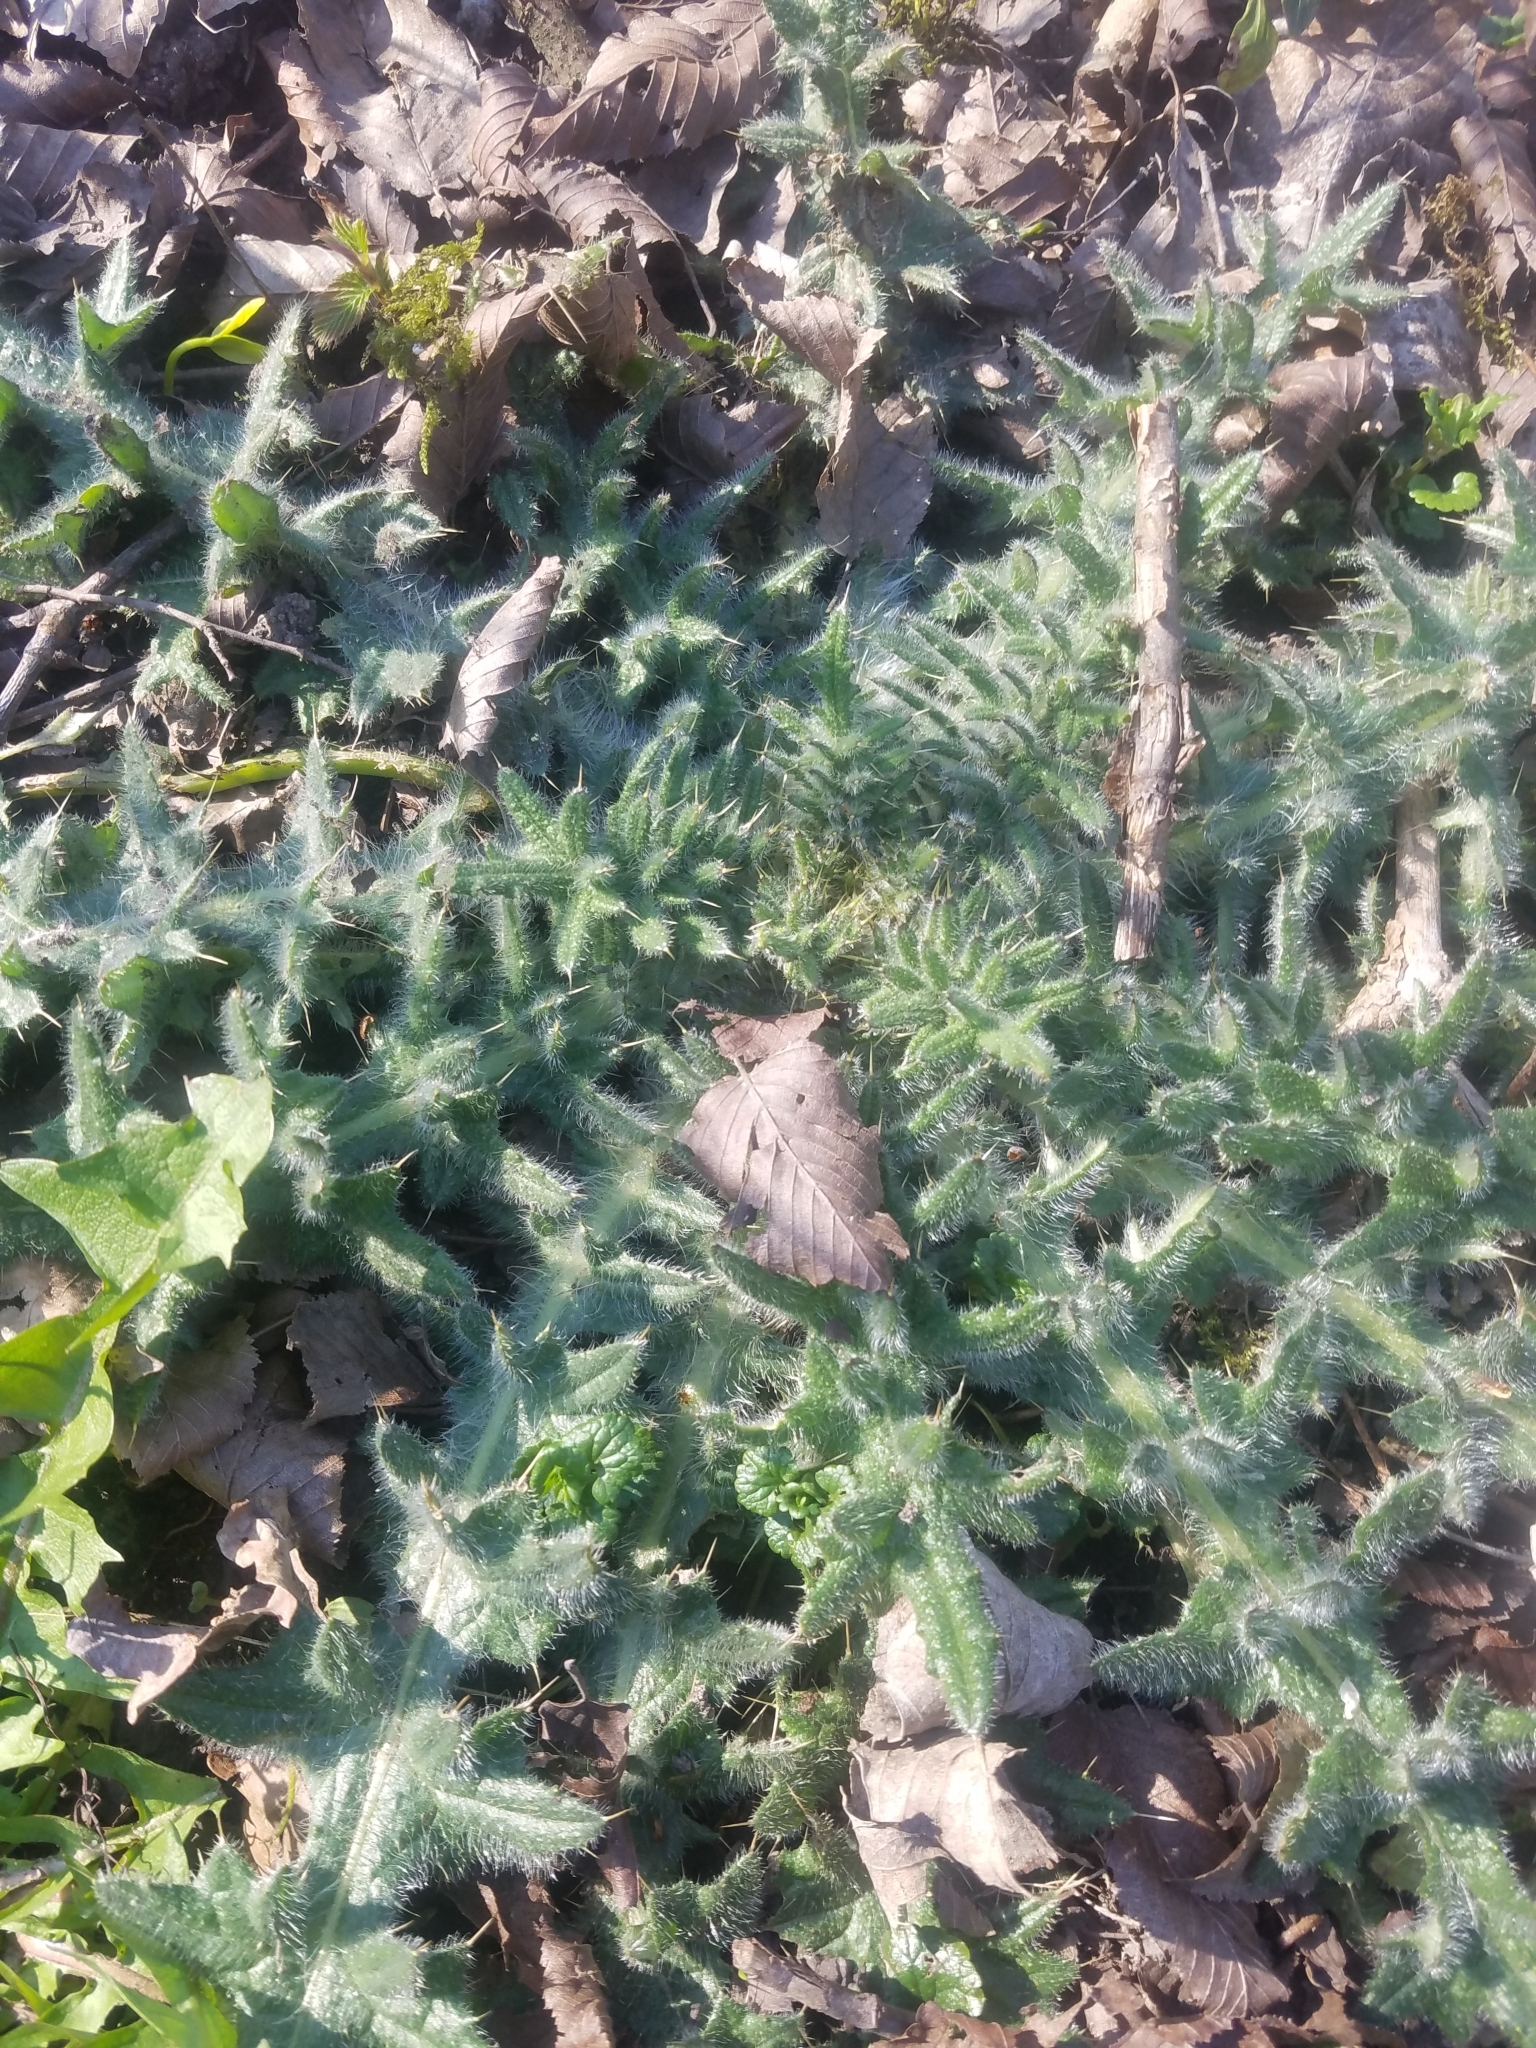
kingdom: Plantae
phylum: Tracheophyta
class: Magnoliopsida
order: Asterales
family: Asteraceae
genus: Cirsium
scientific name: Cirsium vulgare
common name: Bull thistle
